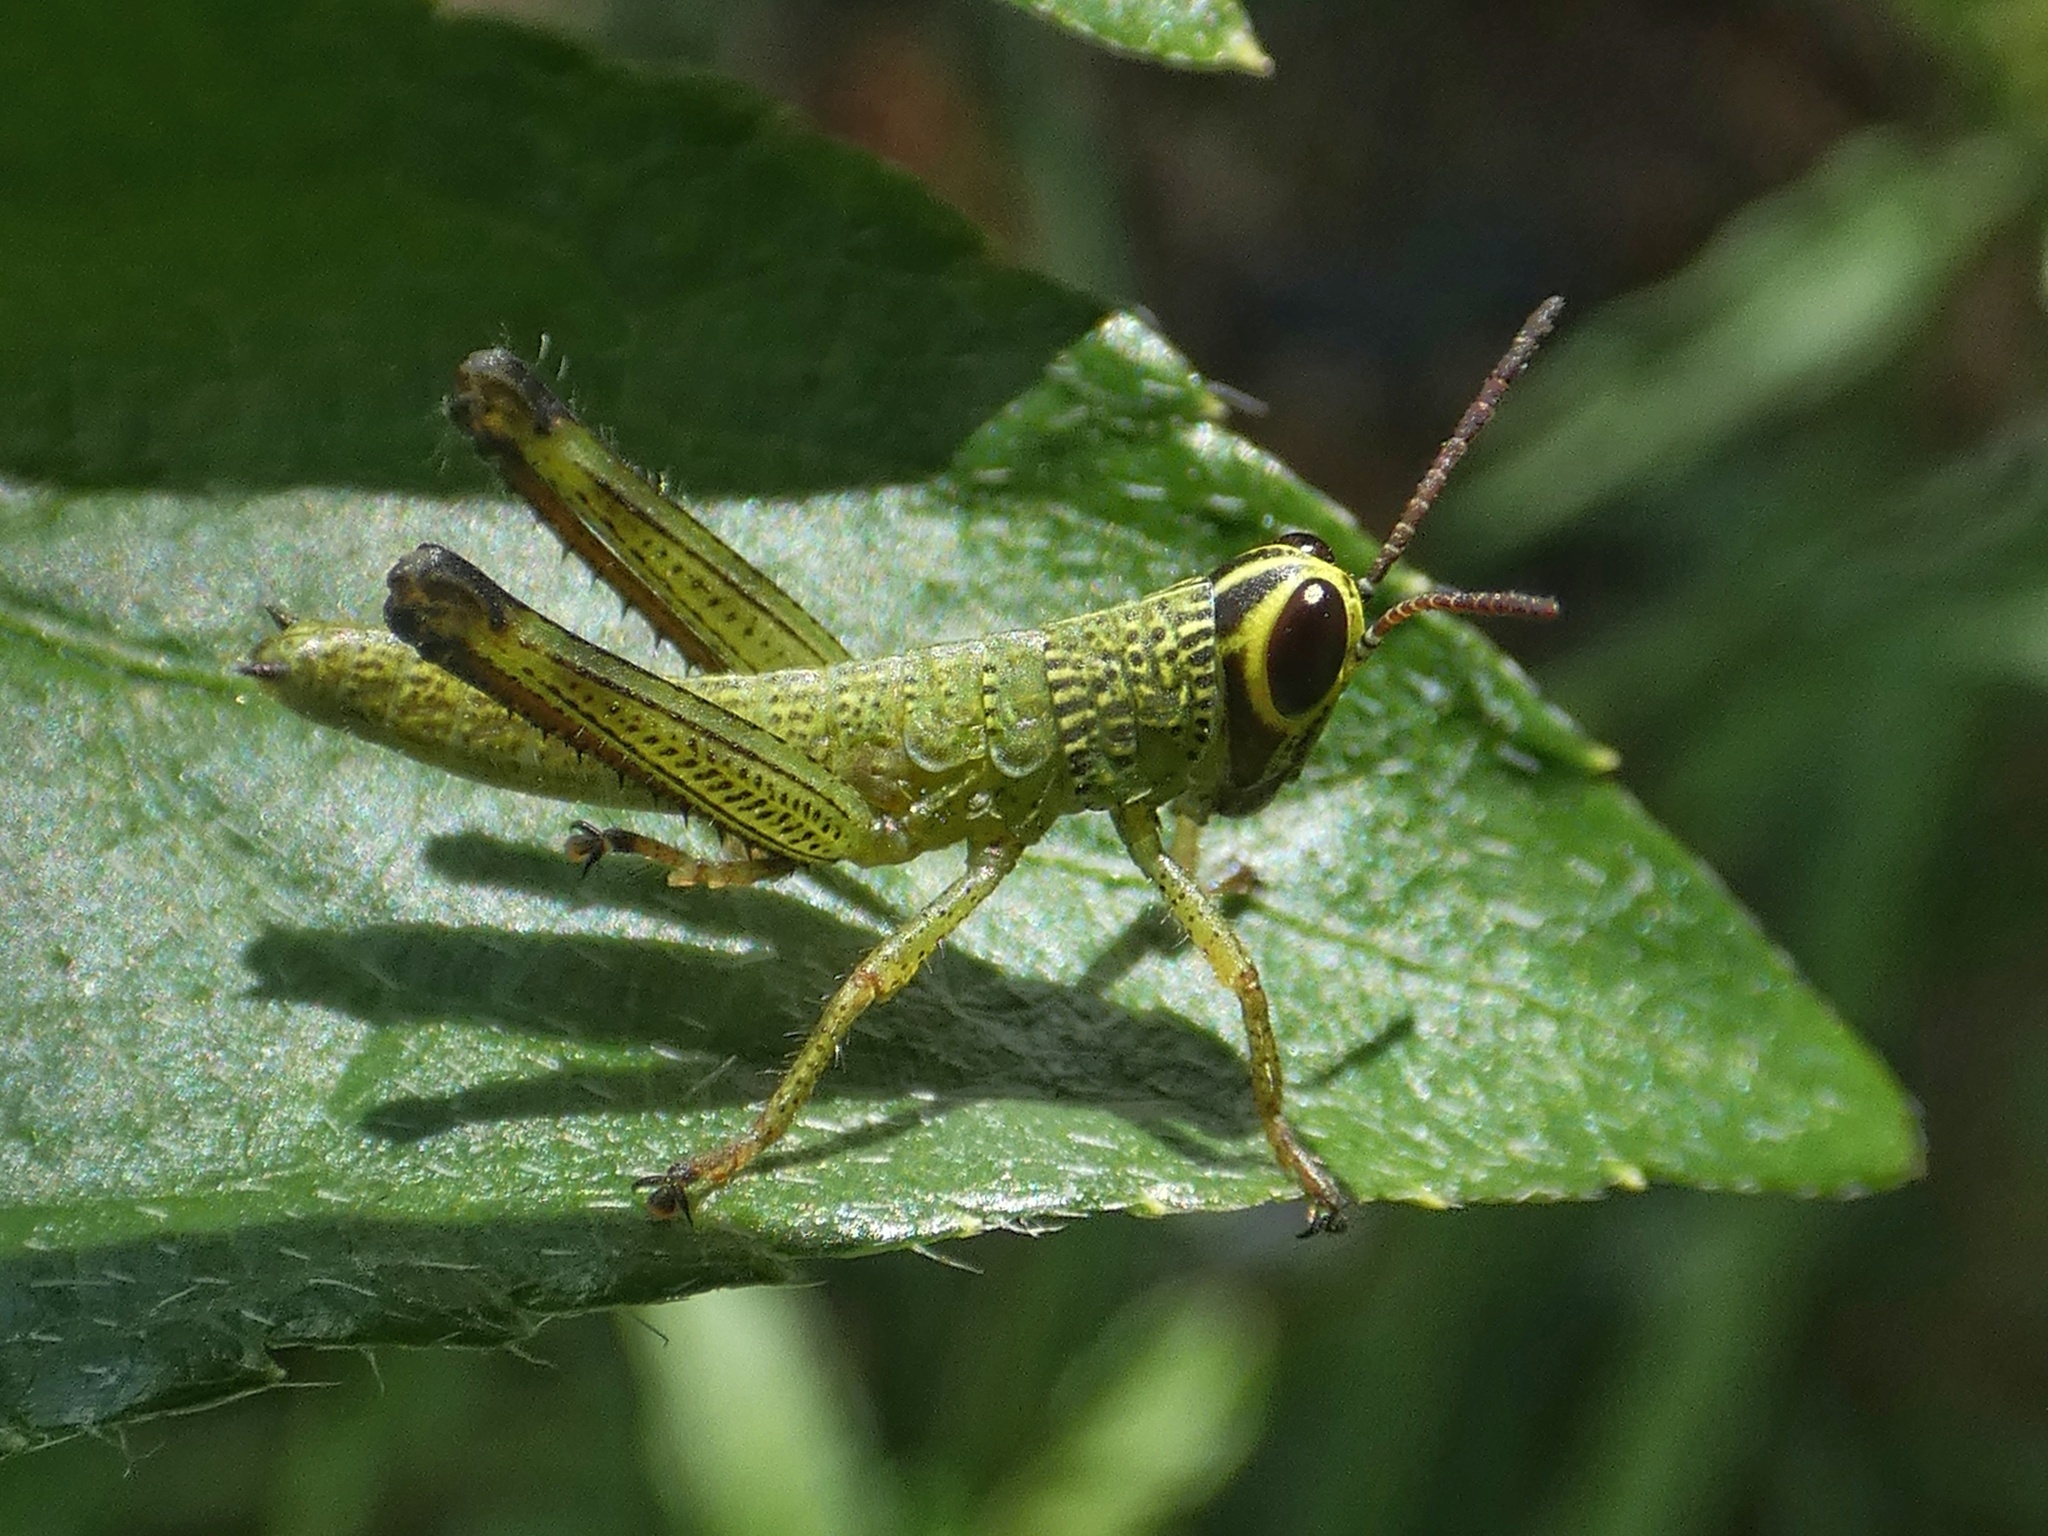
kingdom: Animalia
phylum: Arthropoda
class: Insecta
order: Orthoptera
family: Acrididae
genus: Melicodes
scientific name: Melicodes tenebrosus
